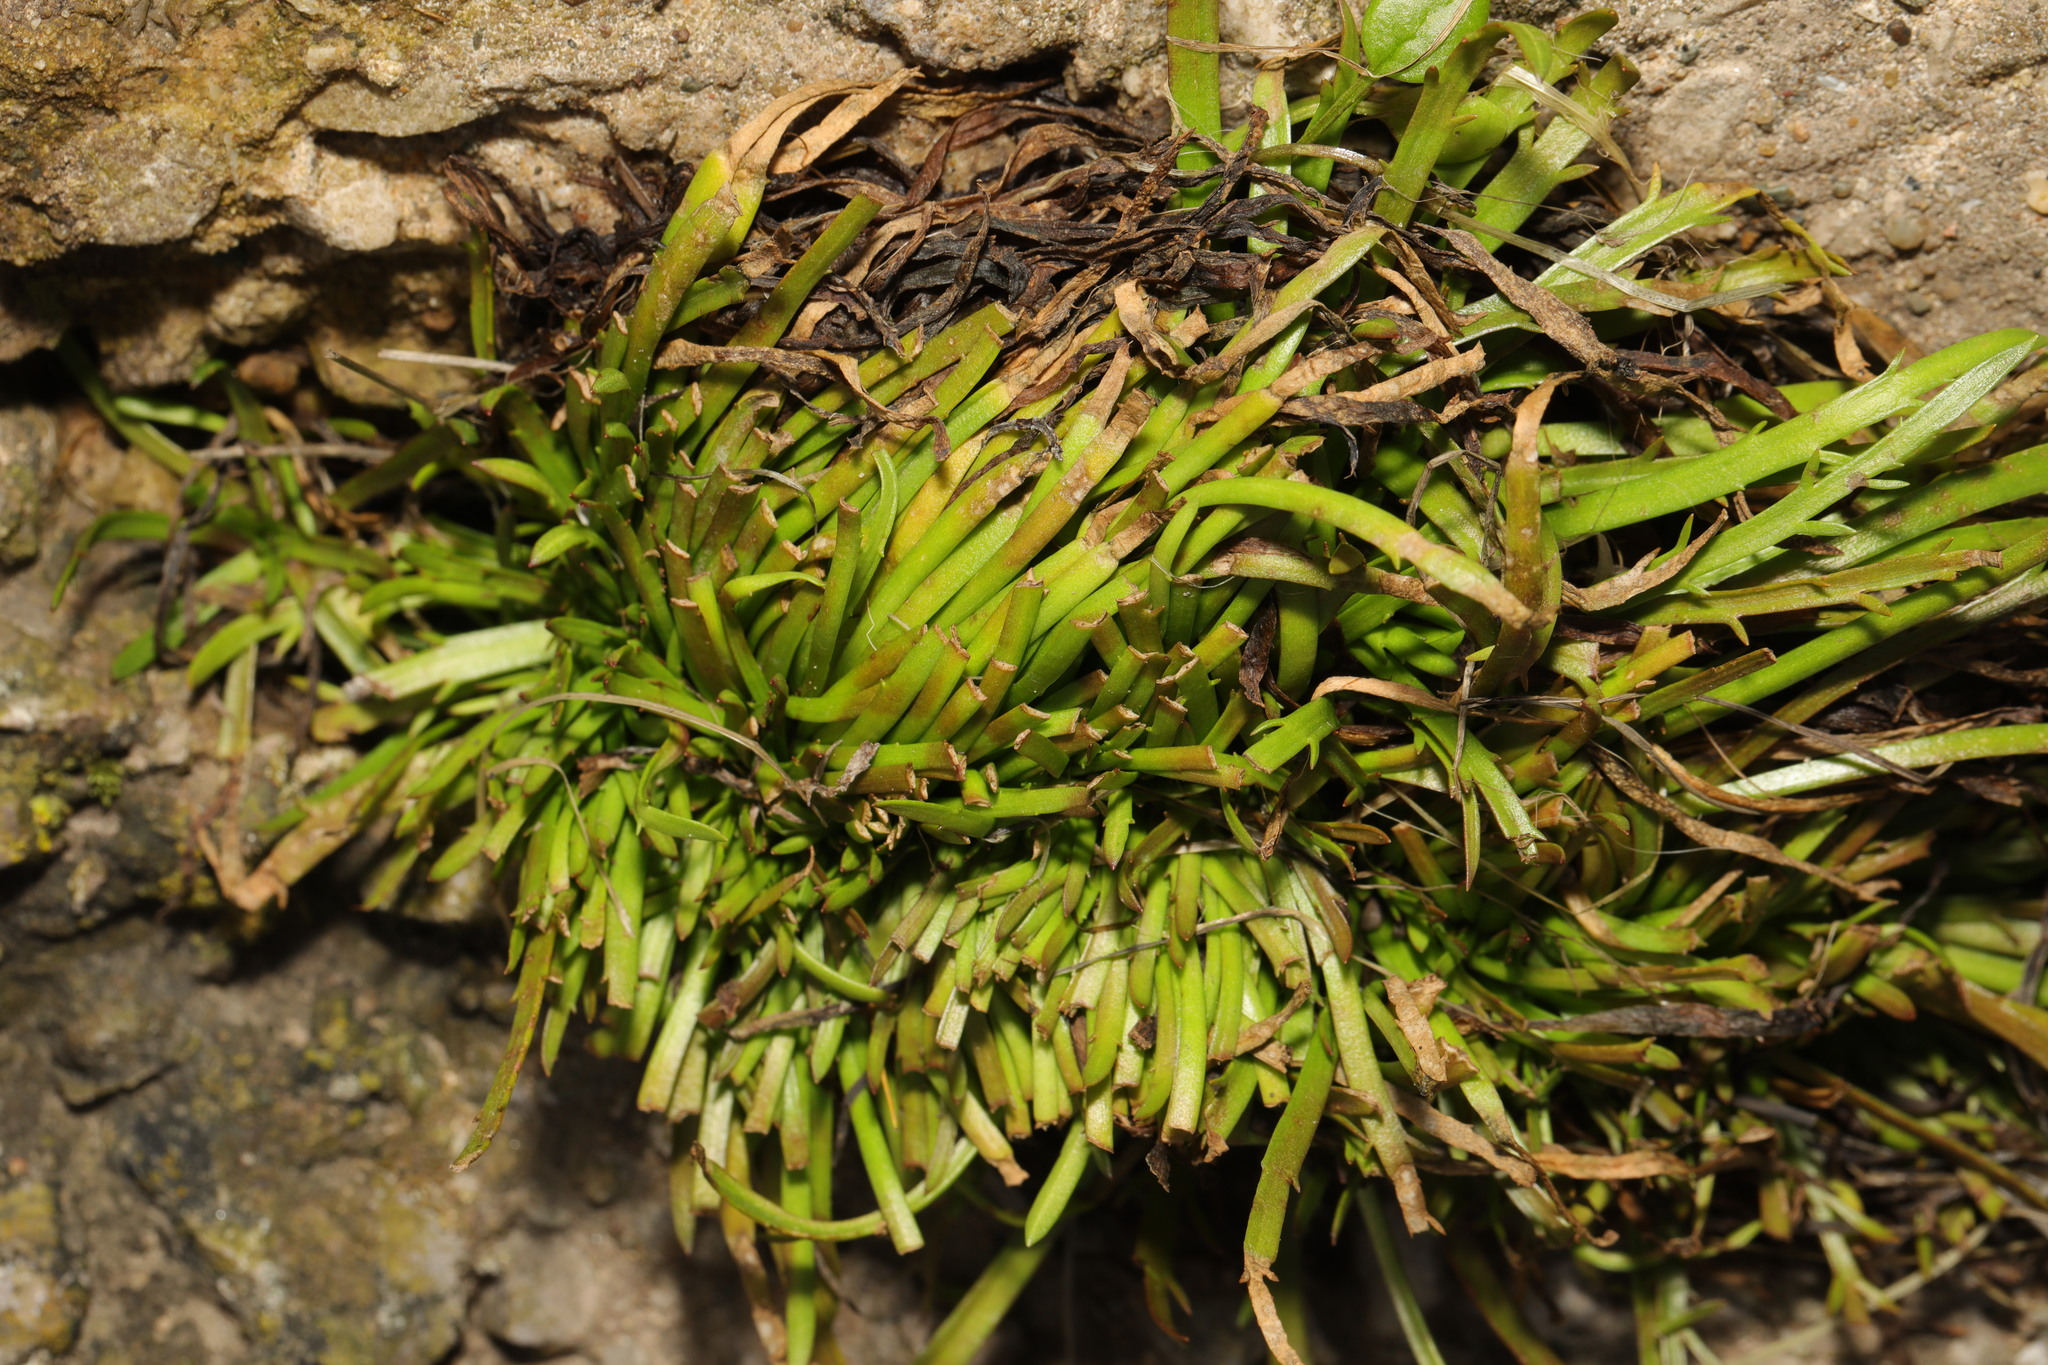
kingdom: Plantae
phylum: Tracheophyta
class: Magnoliopsida
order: Lamiales
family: Plantaginaceae
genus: Plantago
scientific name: Plantago maritima
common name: Sea plantain
